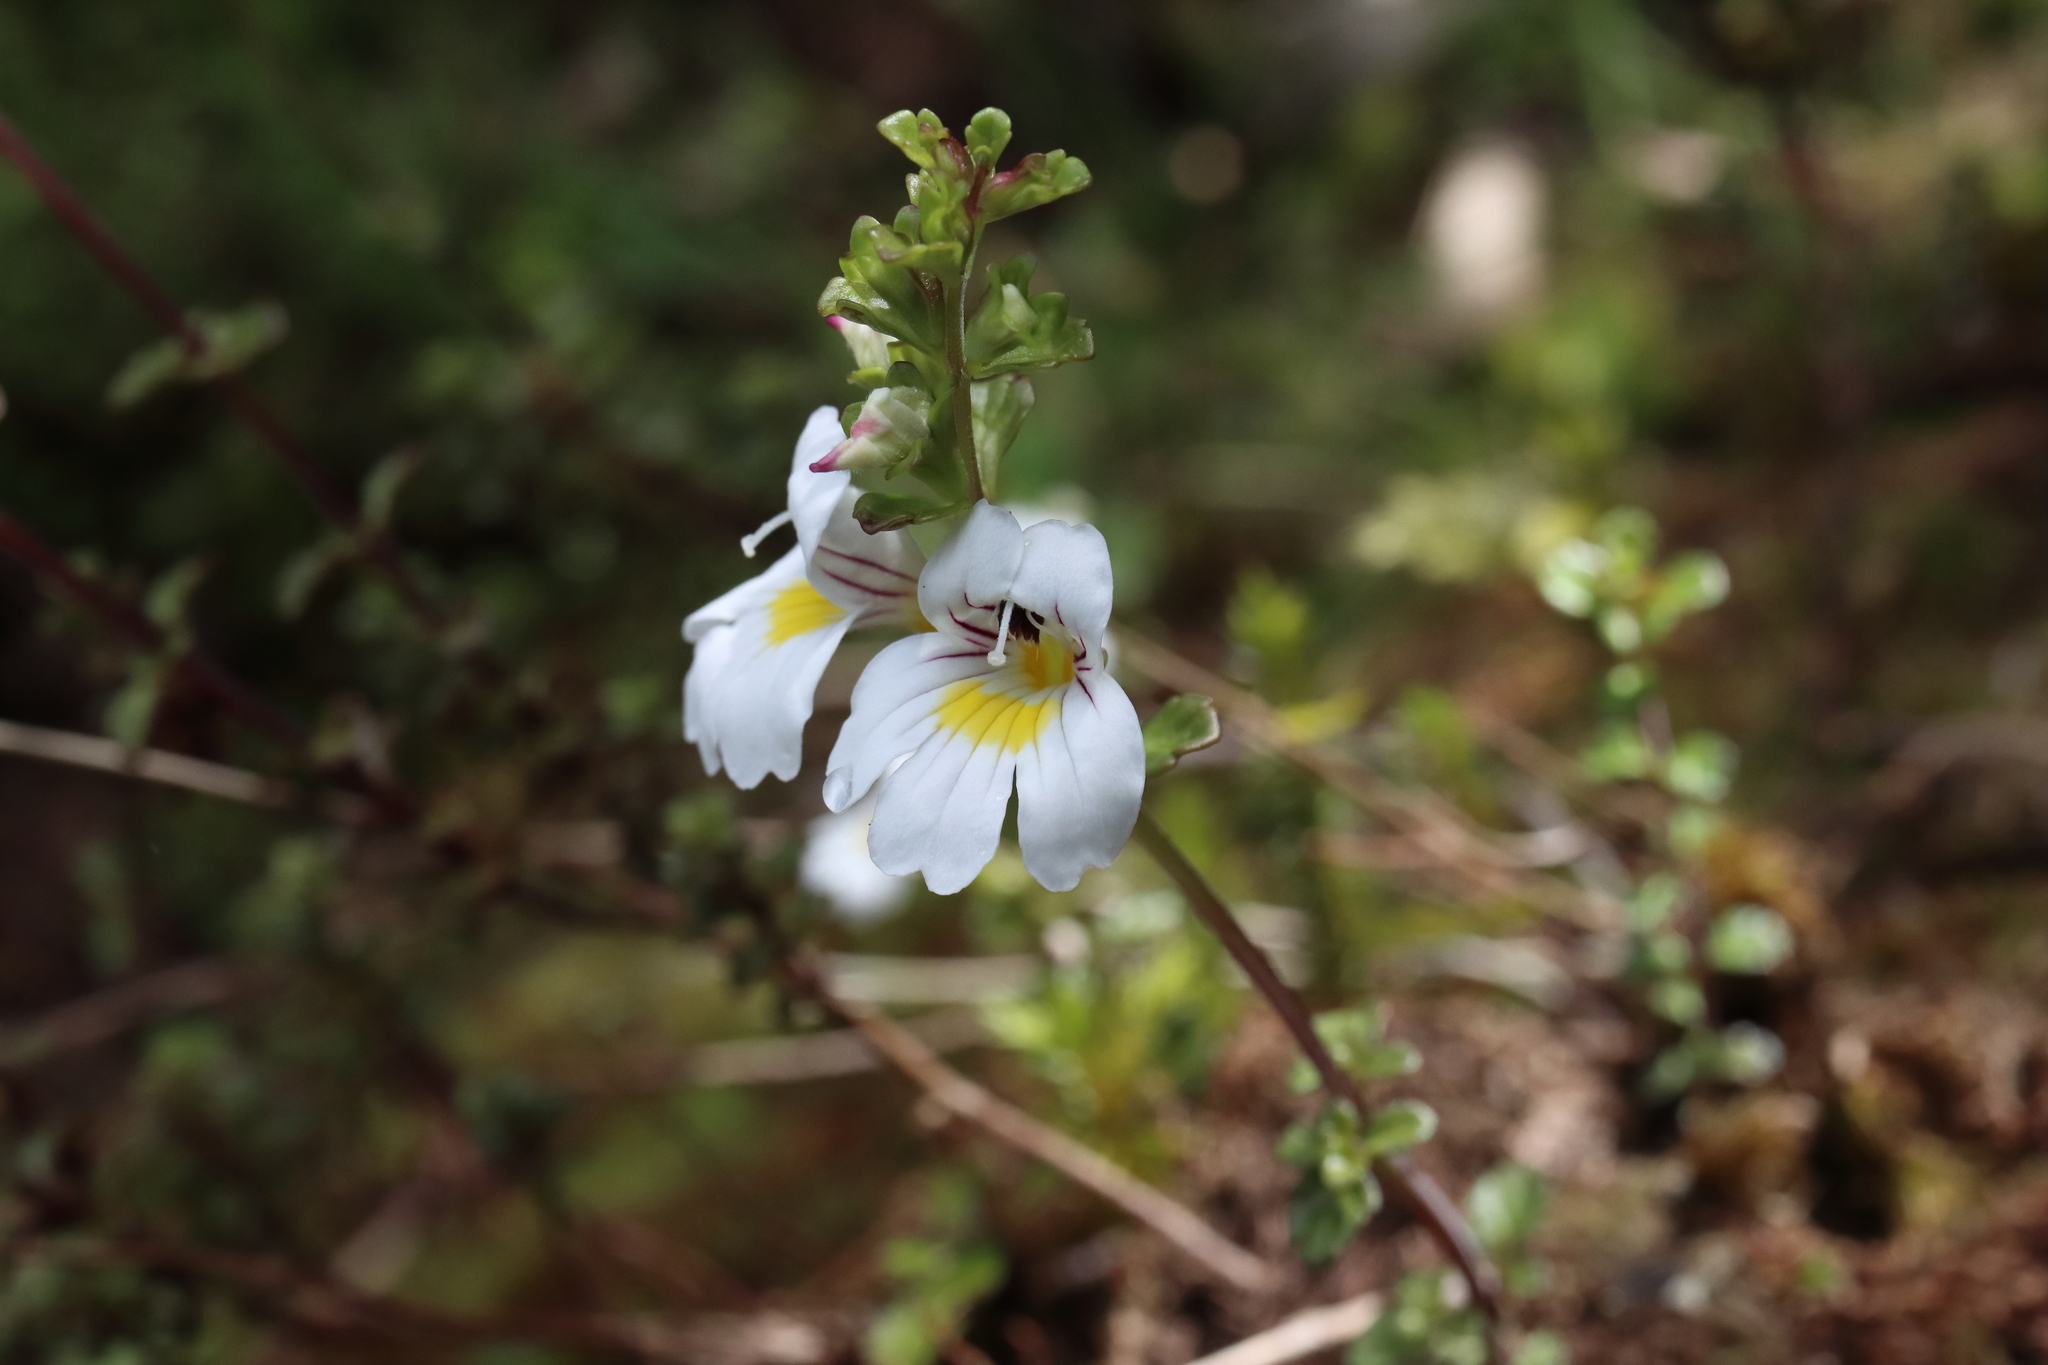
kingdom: Plantae
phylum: Tracheophyta
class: Magnoliopsida
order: Lamiales
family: Orobanchaceae
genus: Euphrasia
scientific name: Euphrasia cuneata
